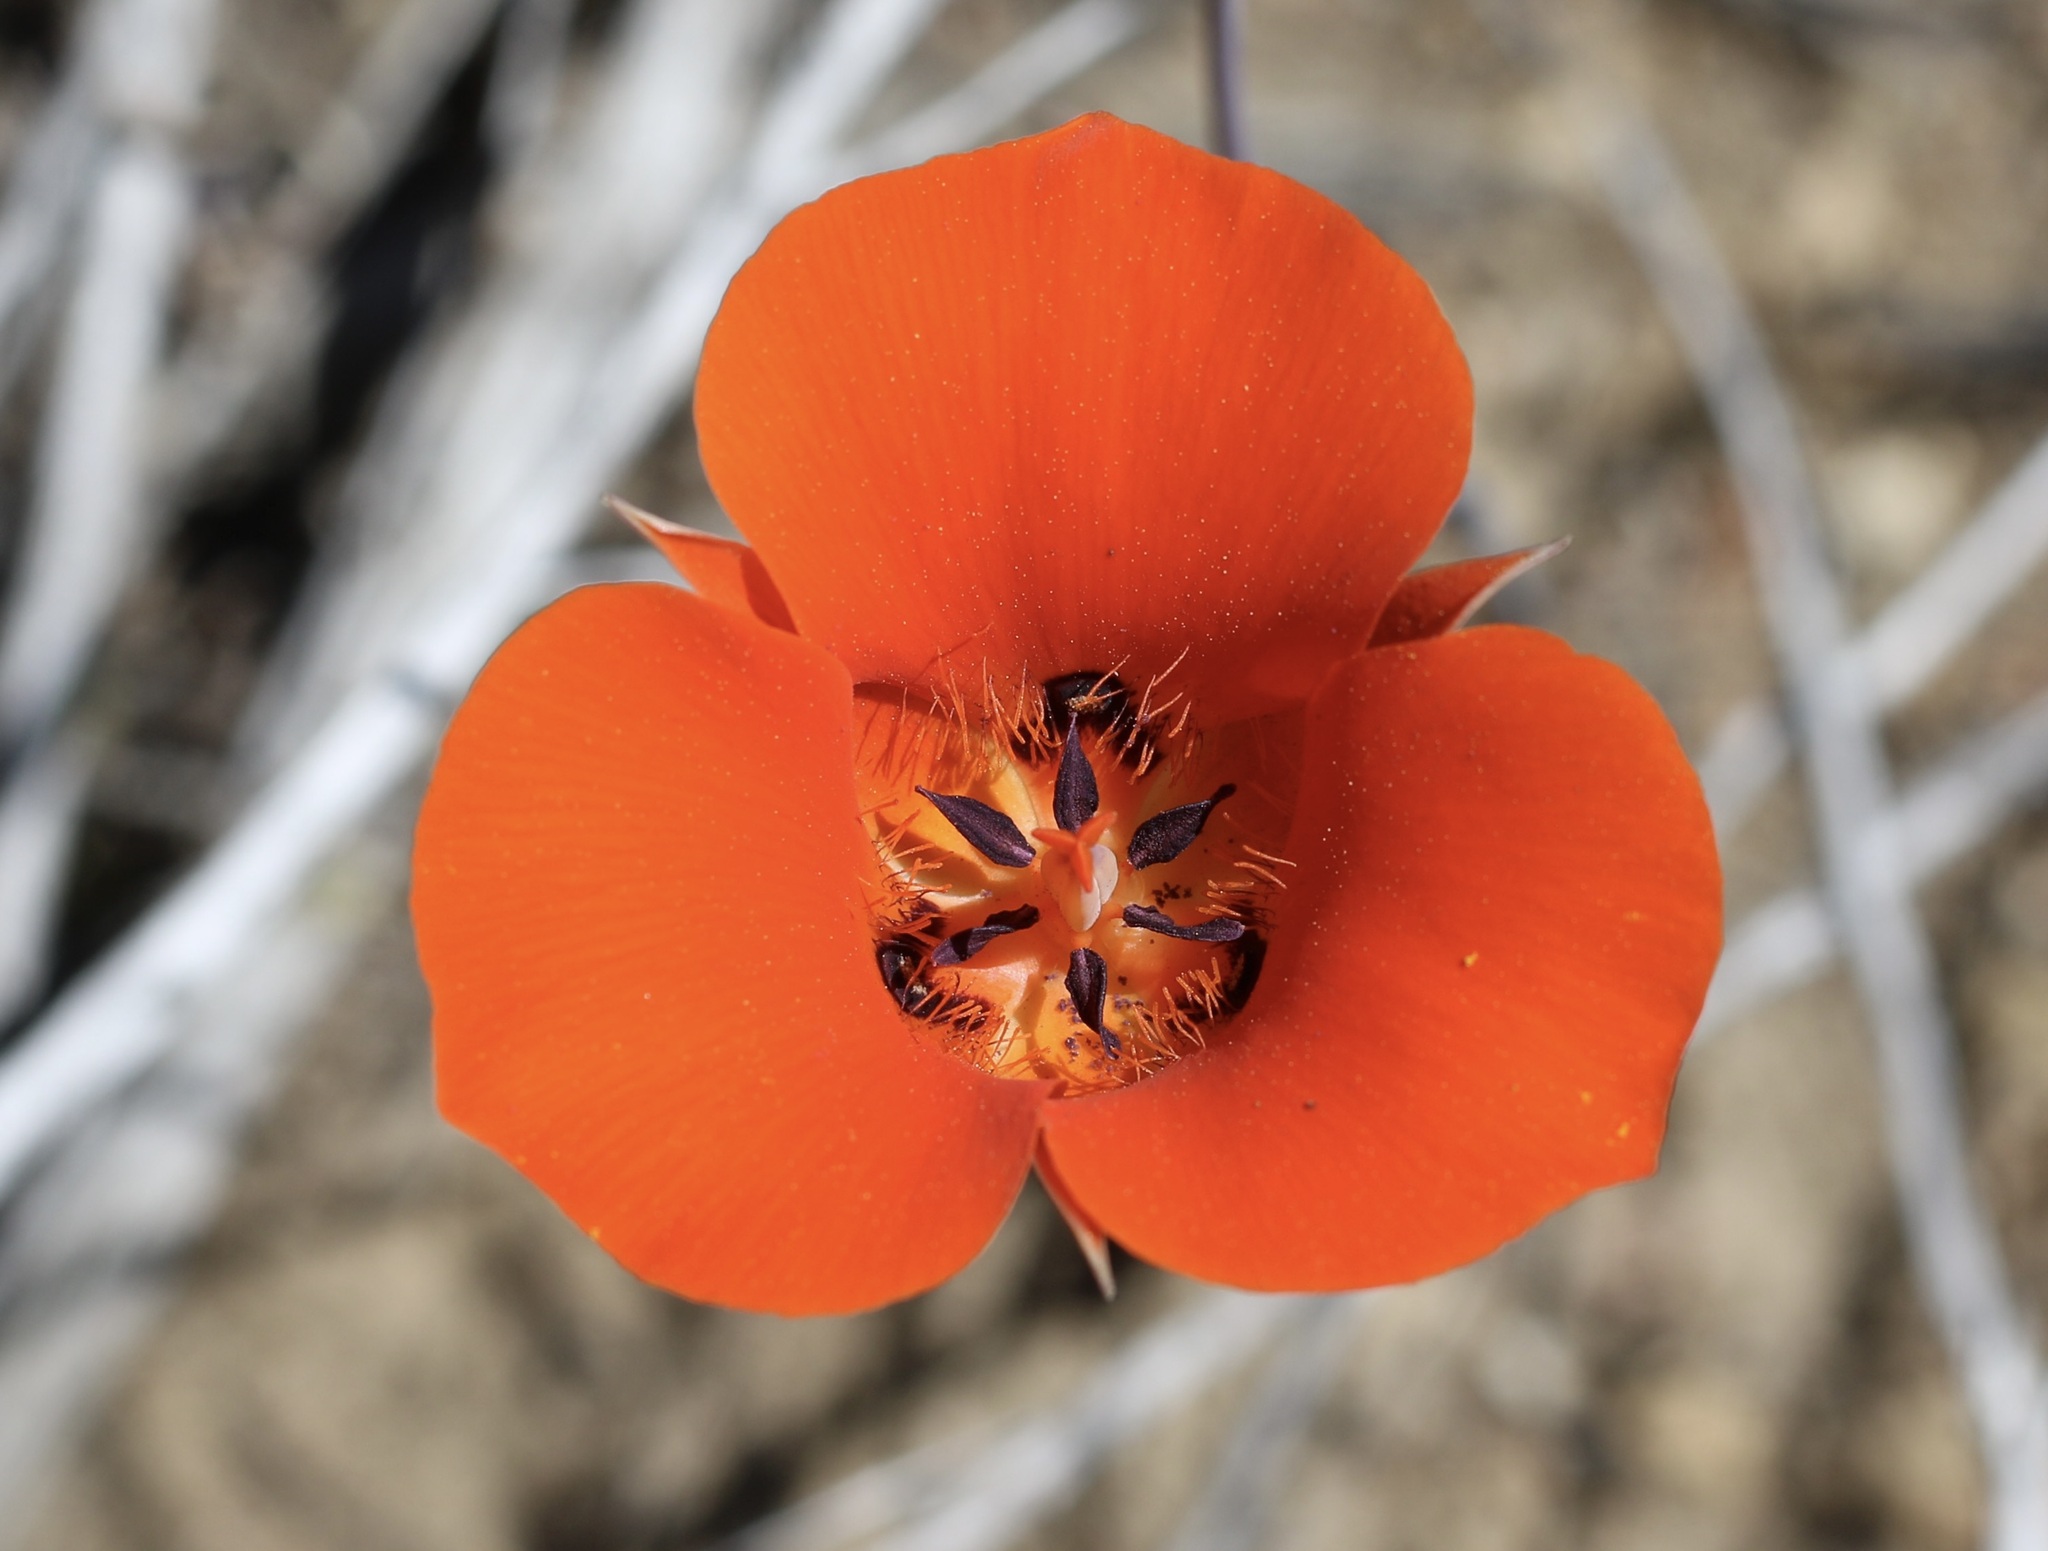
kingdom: Plantae
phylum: Tracheophyta
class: Liliopsida
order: Liliales
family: Liliaceae
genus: Calochortus
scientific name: Calochortus kennedyi
